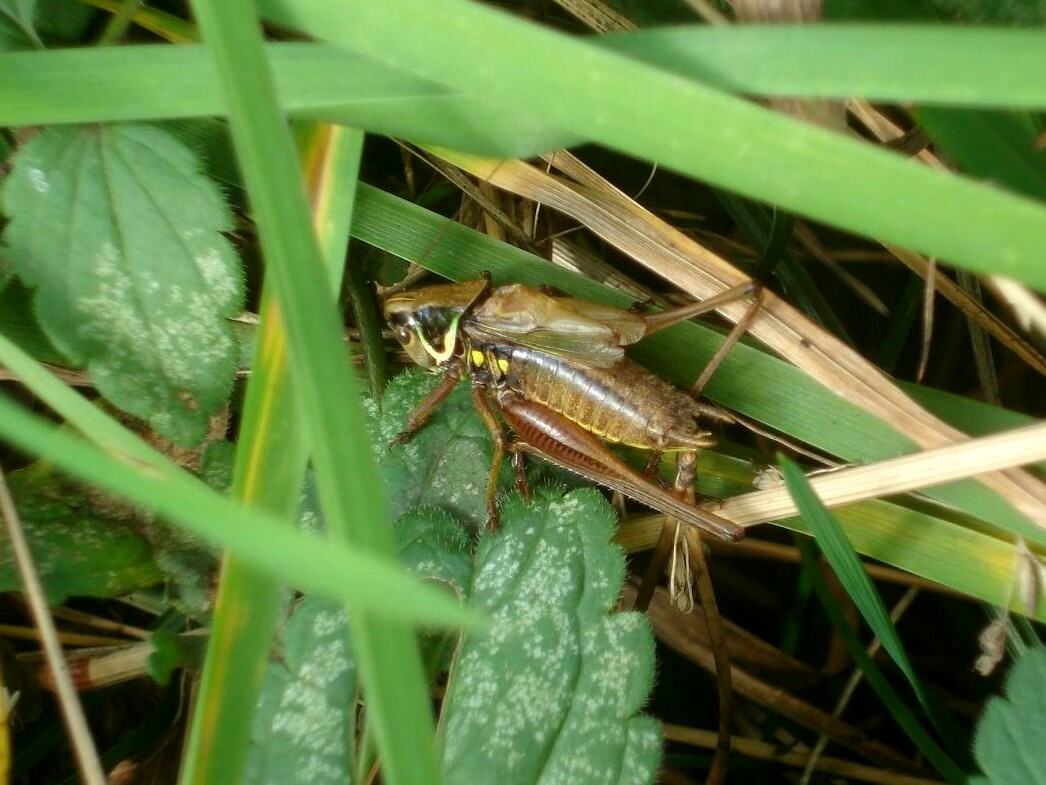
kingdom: Animalia
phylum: Arthropoda
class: Insecta
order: Orthoptera
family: Tettigoniidae
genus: Roeseliana
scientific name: Roeseliana roeselii
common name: Roesel's bush cricket
